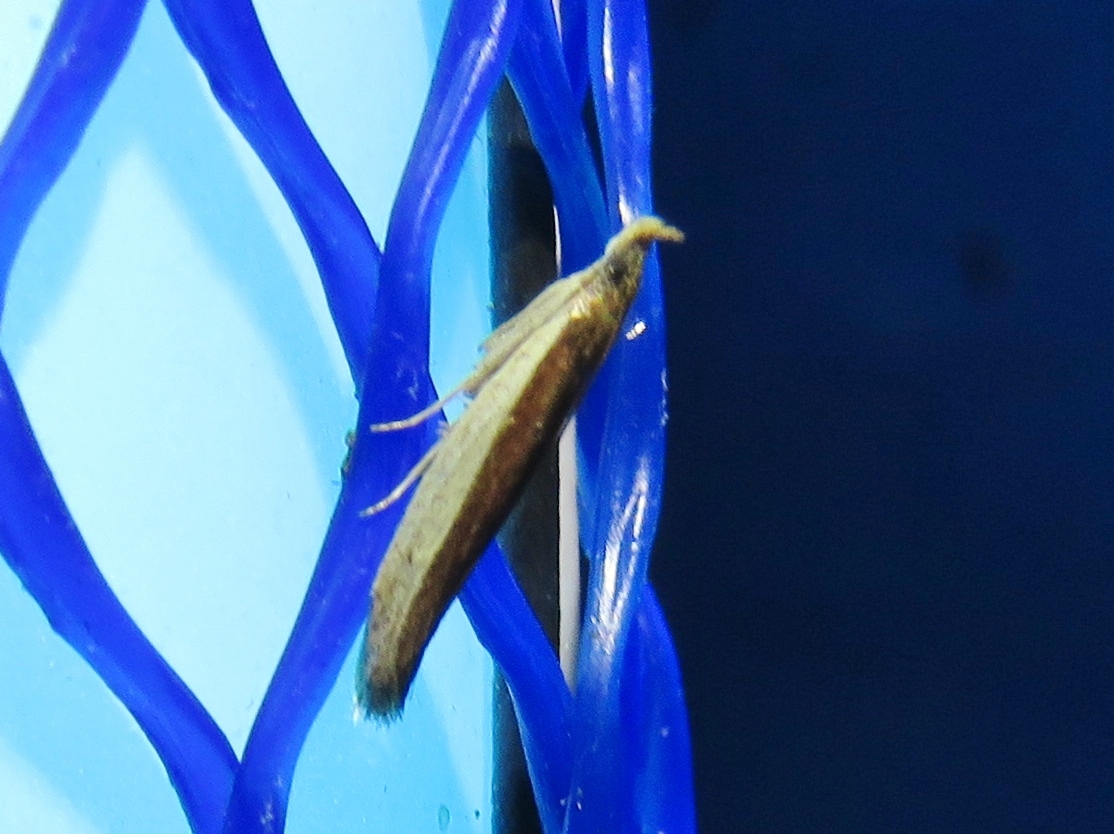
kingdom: Animalia
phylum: Arthropoda
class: Insecta
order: Lepidoptera
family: Pyralidae
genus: Tampa
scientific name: Tampa dimediatella
